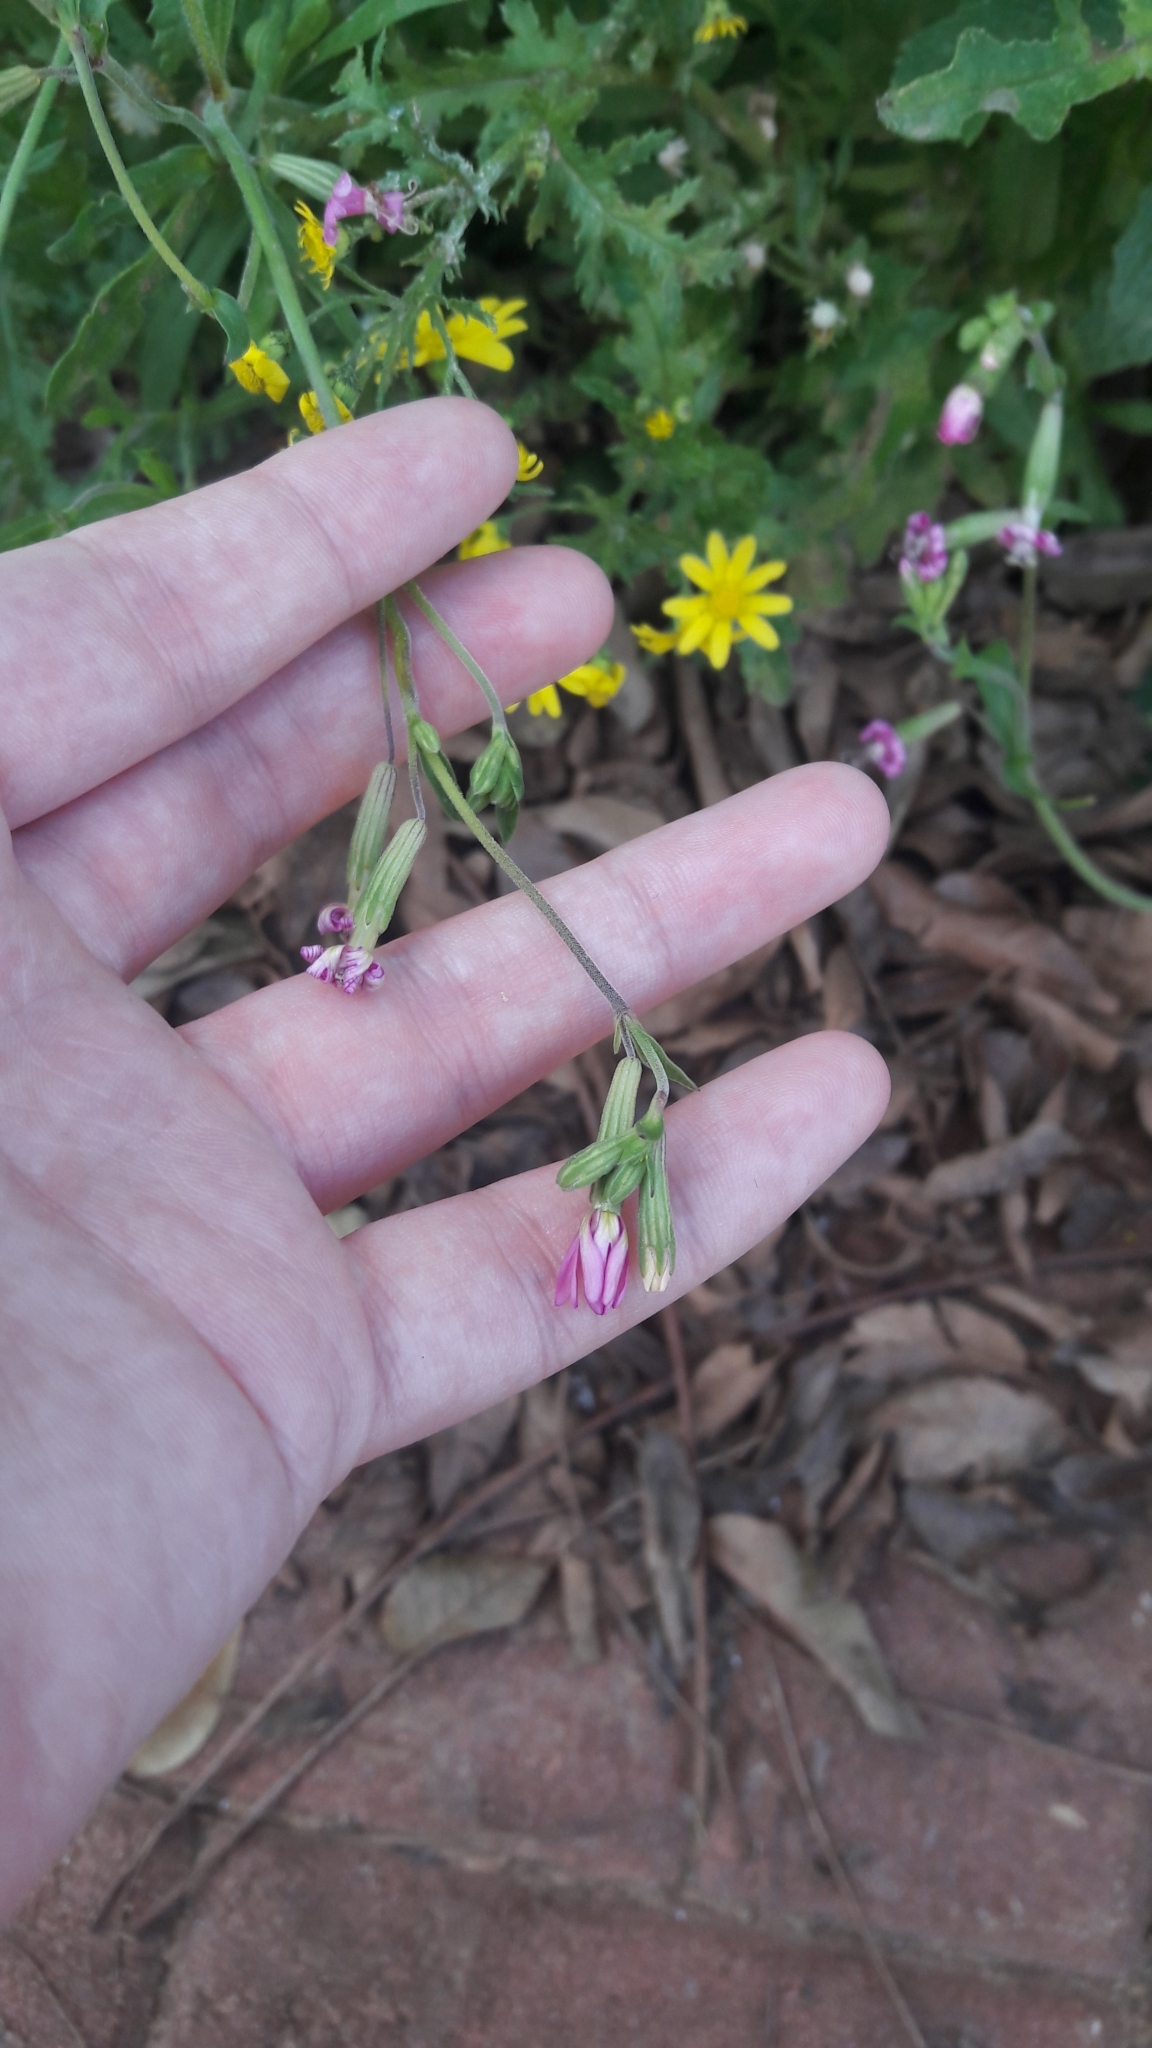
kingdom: Plantae
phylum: Tracheophyta
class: Magnoliopsida
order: Caryophyllales
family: Caryophyllaceae
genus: Silene
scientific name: Silene colorata
